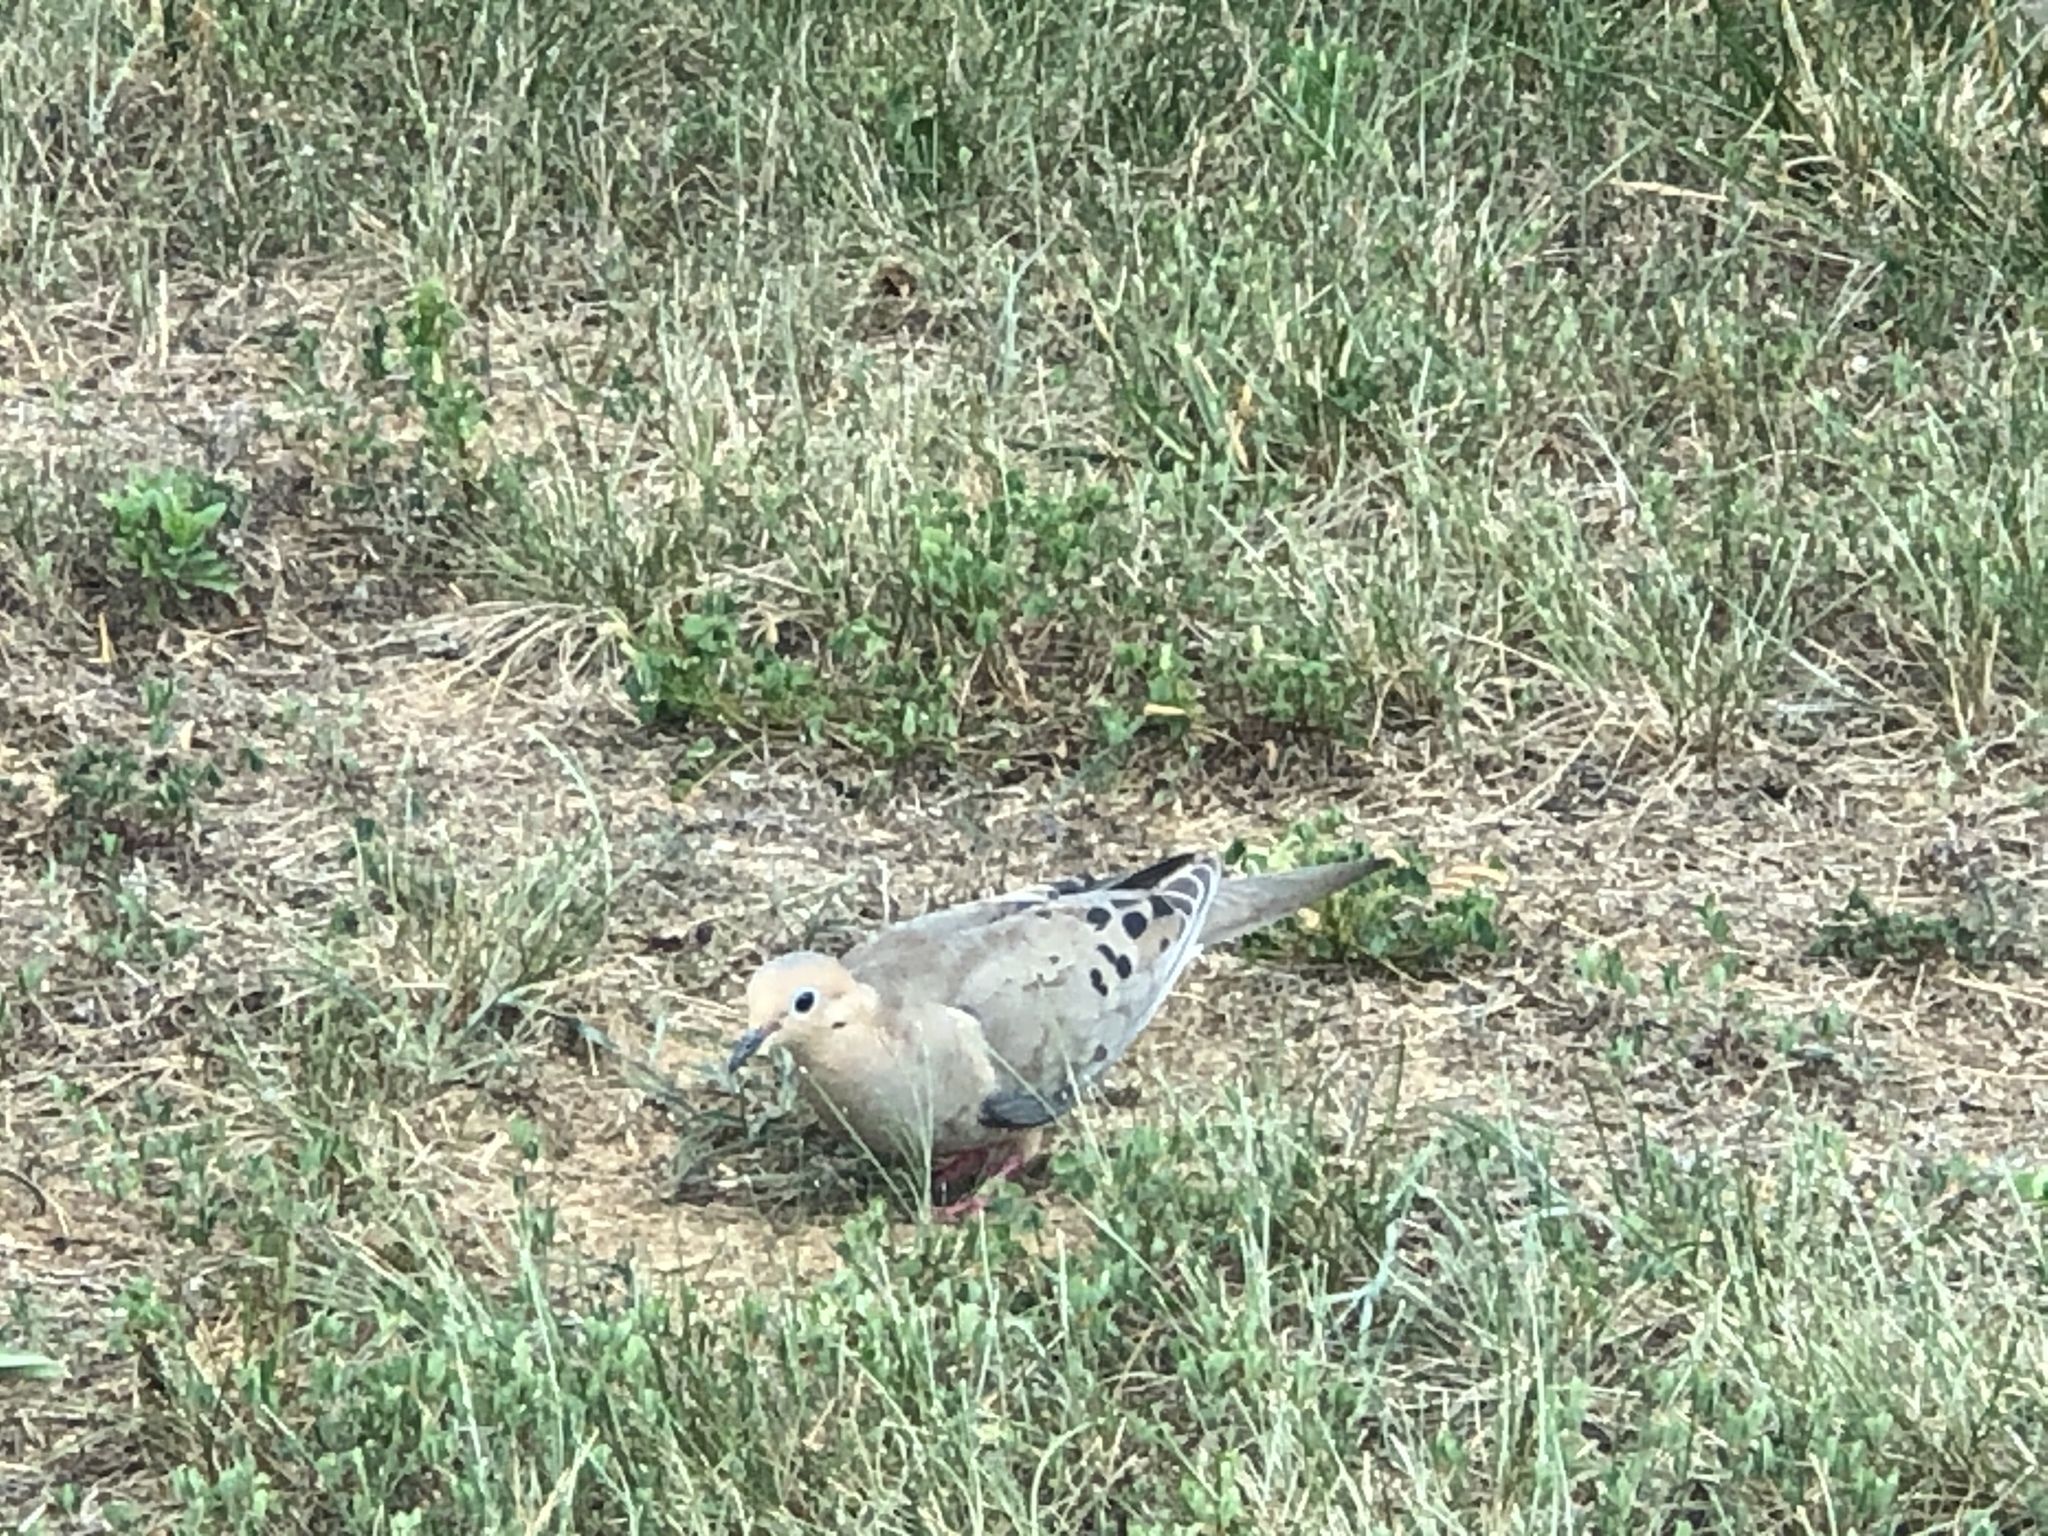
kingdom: Animalia
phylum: Chordata
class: Aves
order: Columbiformes
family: Columbidae
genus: Zenaida
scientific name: Zenaida macroura
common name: Mourning dove
